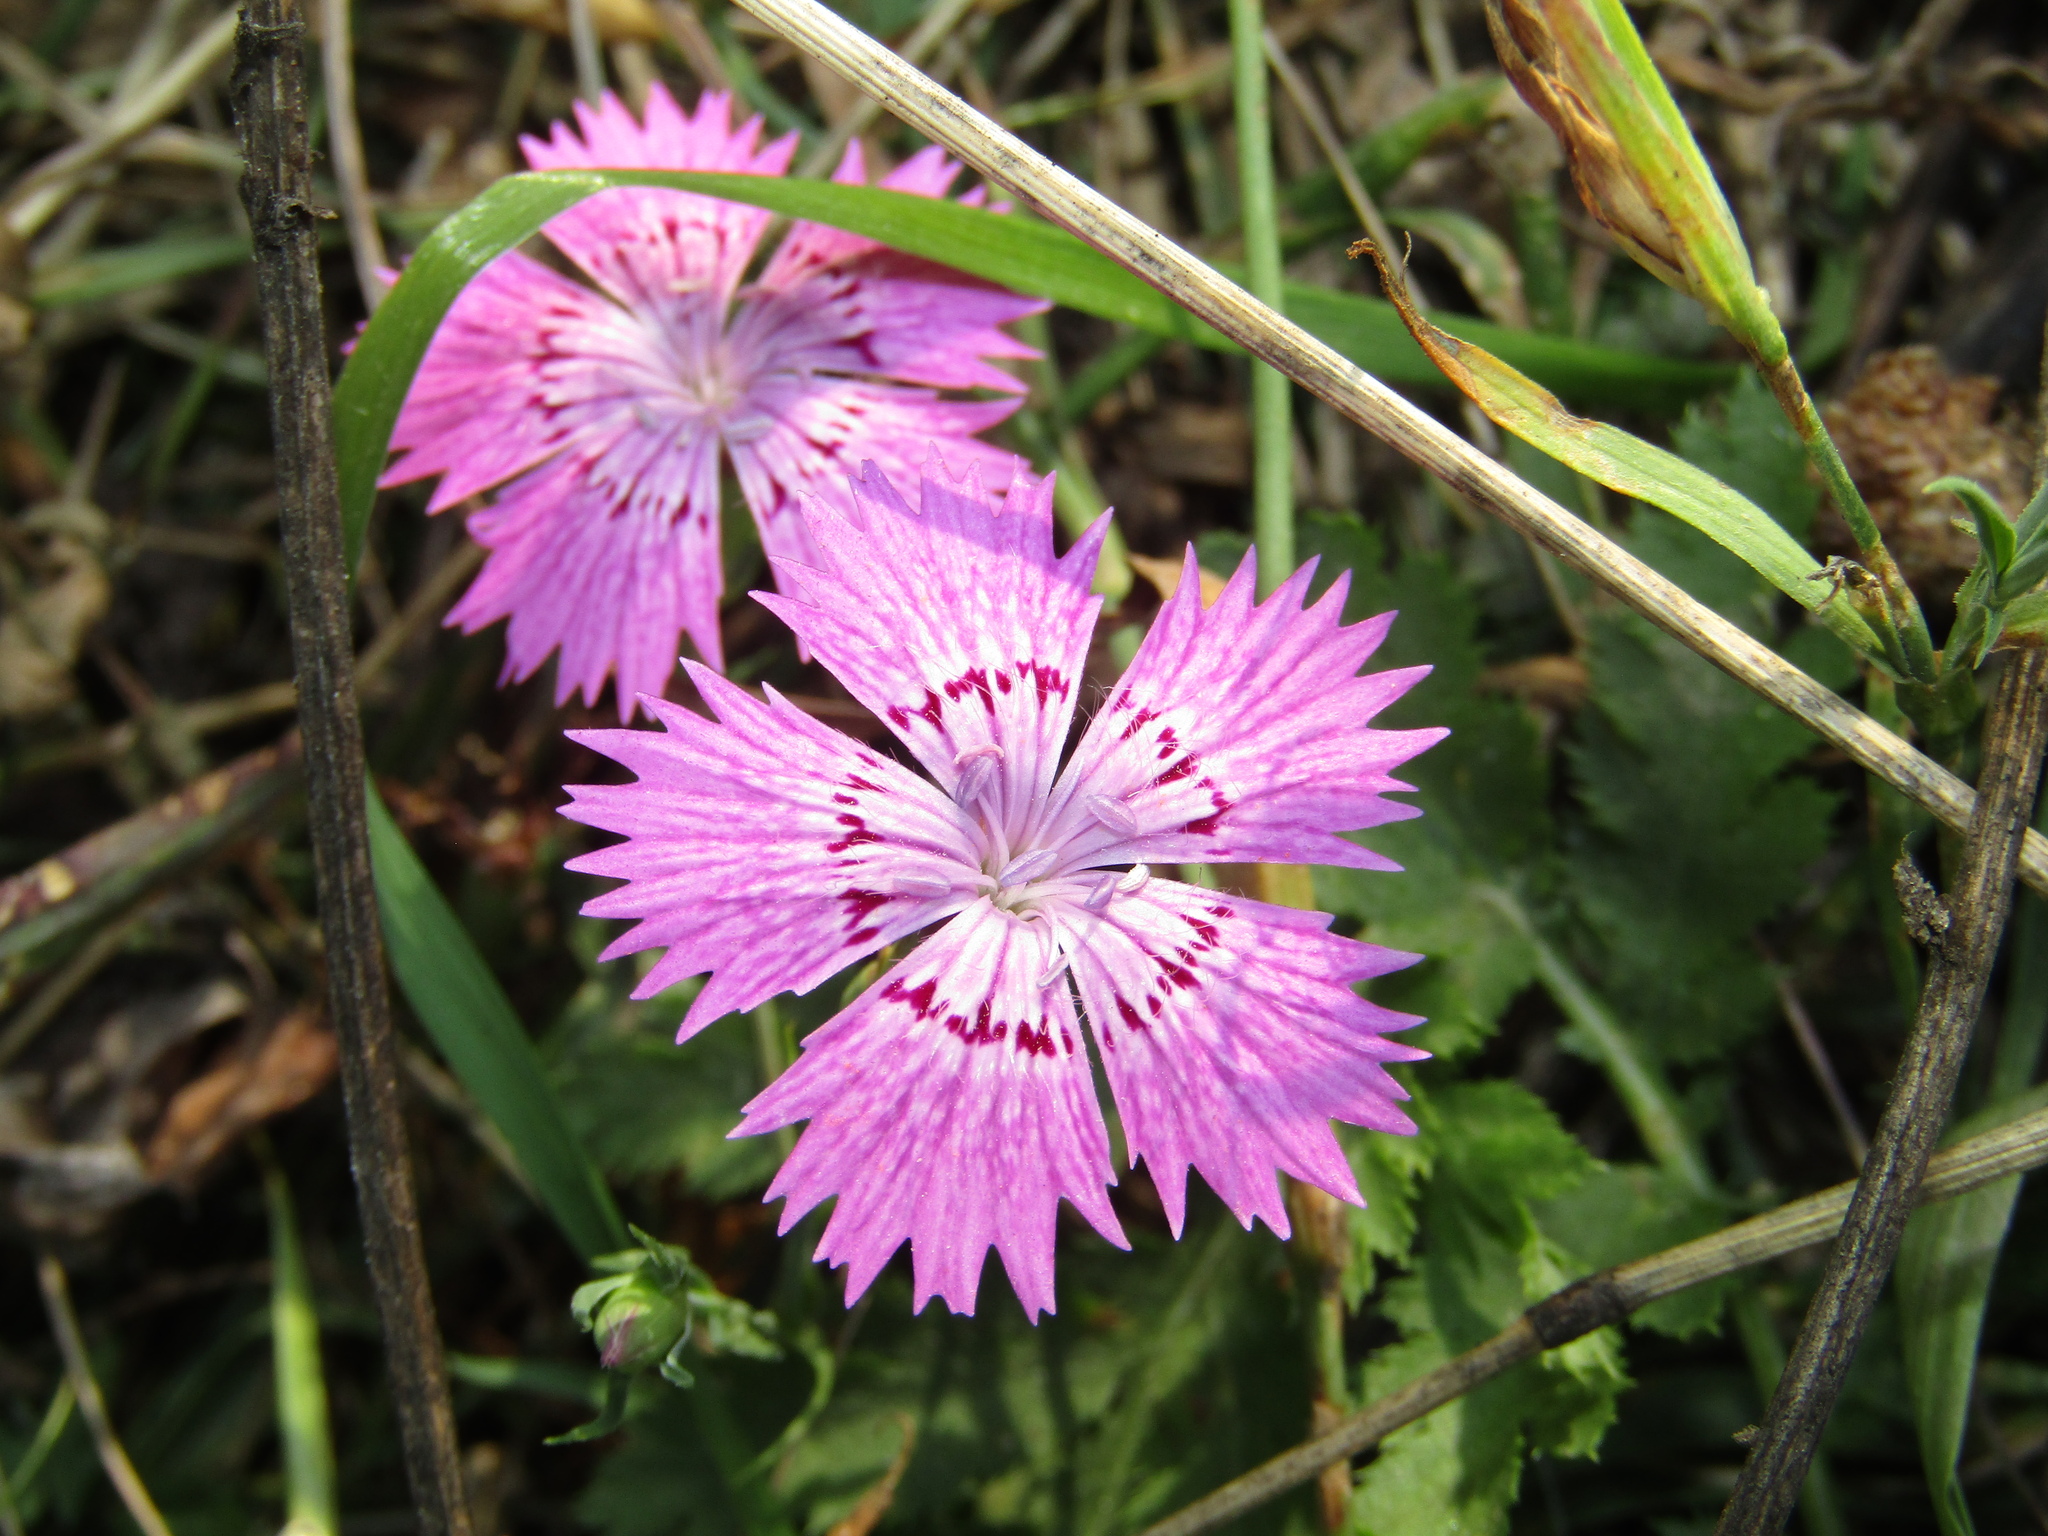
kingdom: Plantae
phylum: Tracheophyta
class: Magnoliopsida
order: Caryophyllales
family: Caryophyllaceae
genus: Dianthus
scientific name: Dianthus chinensis
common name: Rainbow pink
